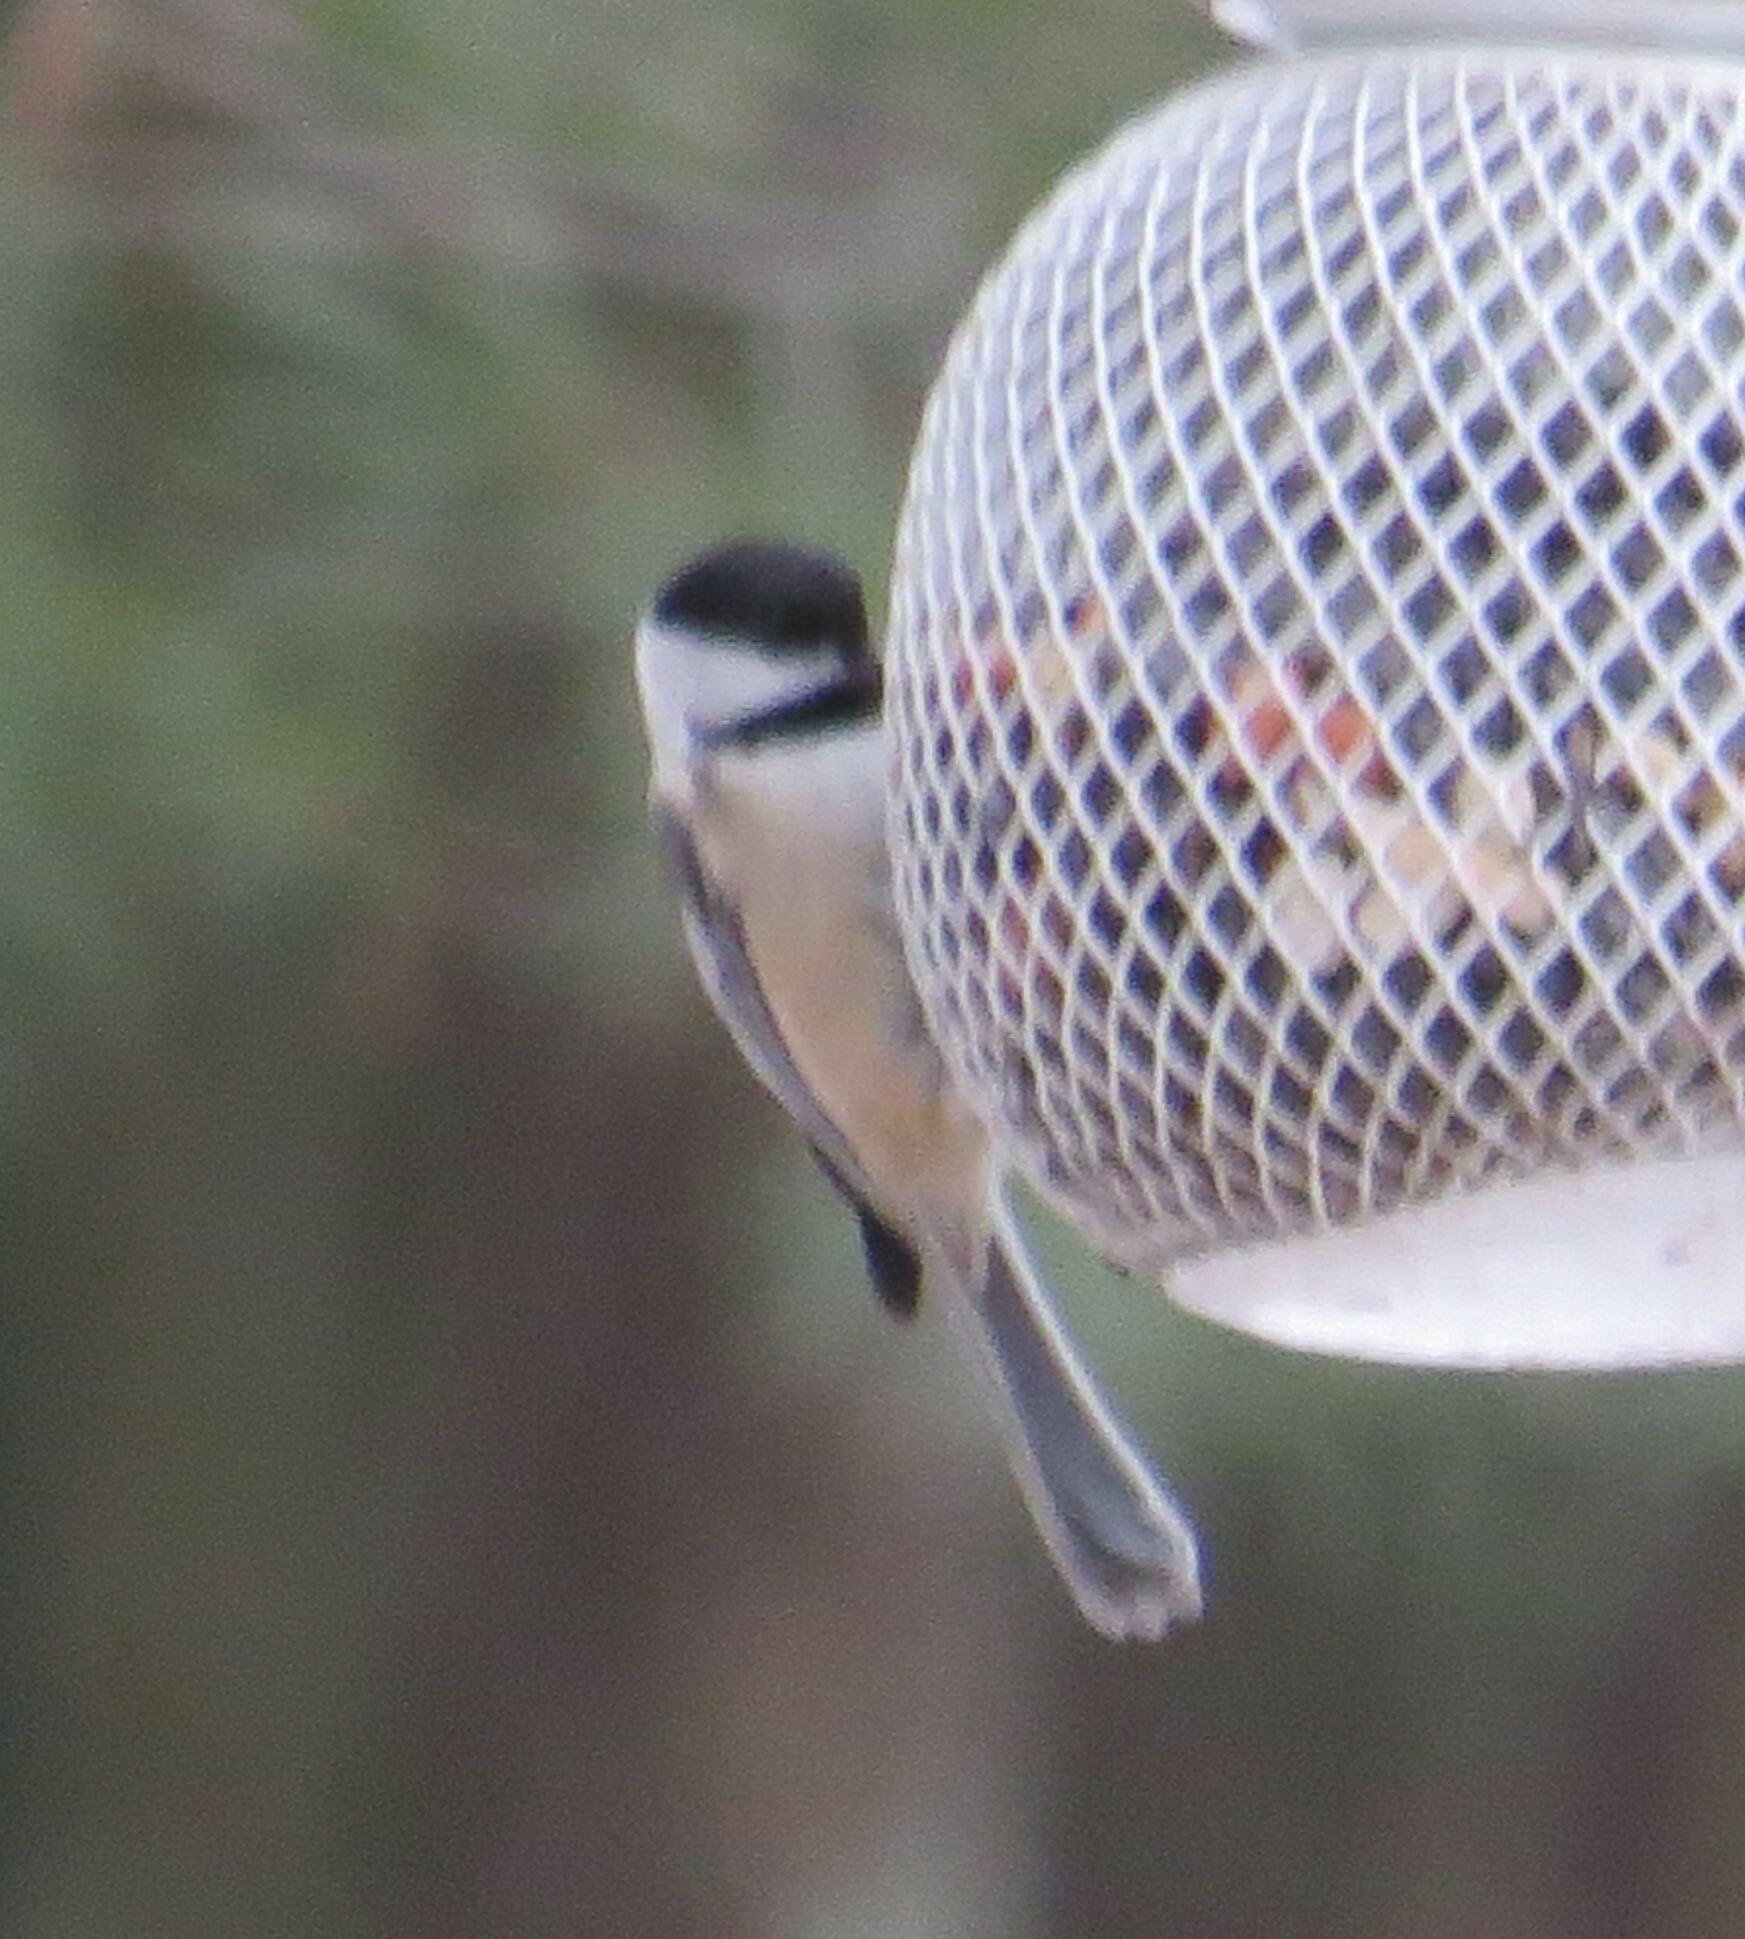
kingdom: Animalia
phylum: Chordata
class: Aves
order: Passeriformes
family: Paridae
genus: Poecile
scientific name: Poecile atricapillus
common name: Black-capped chickadee
